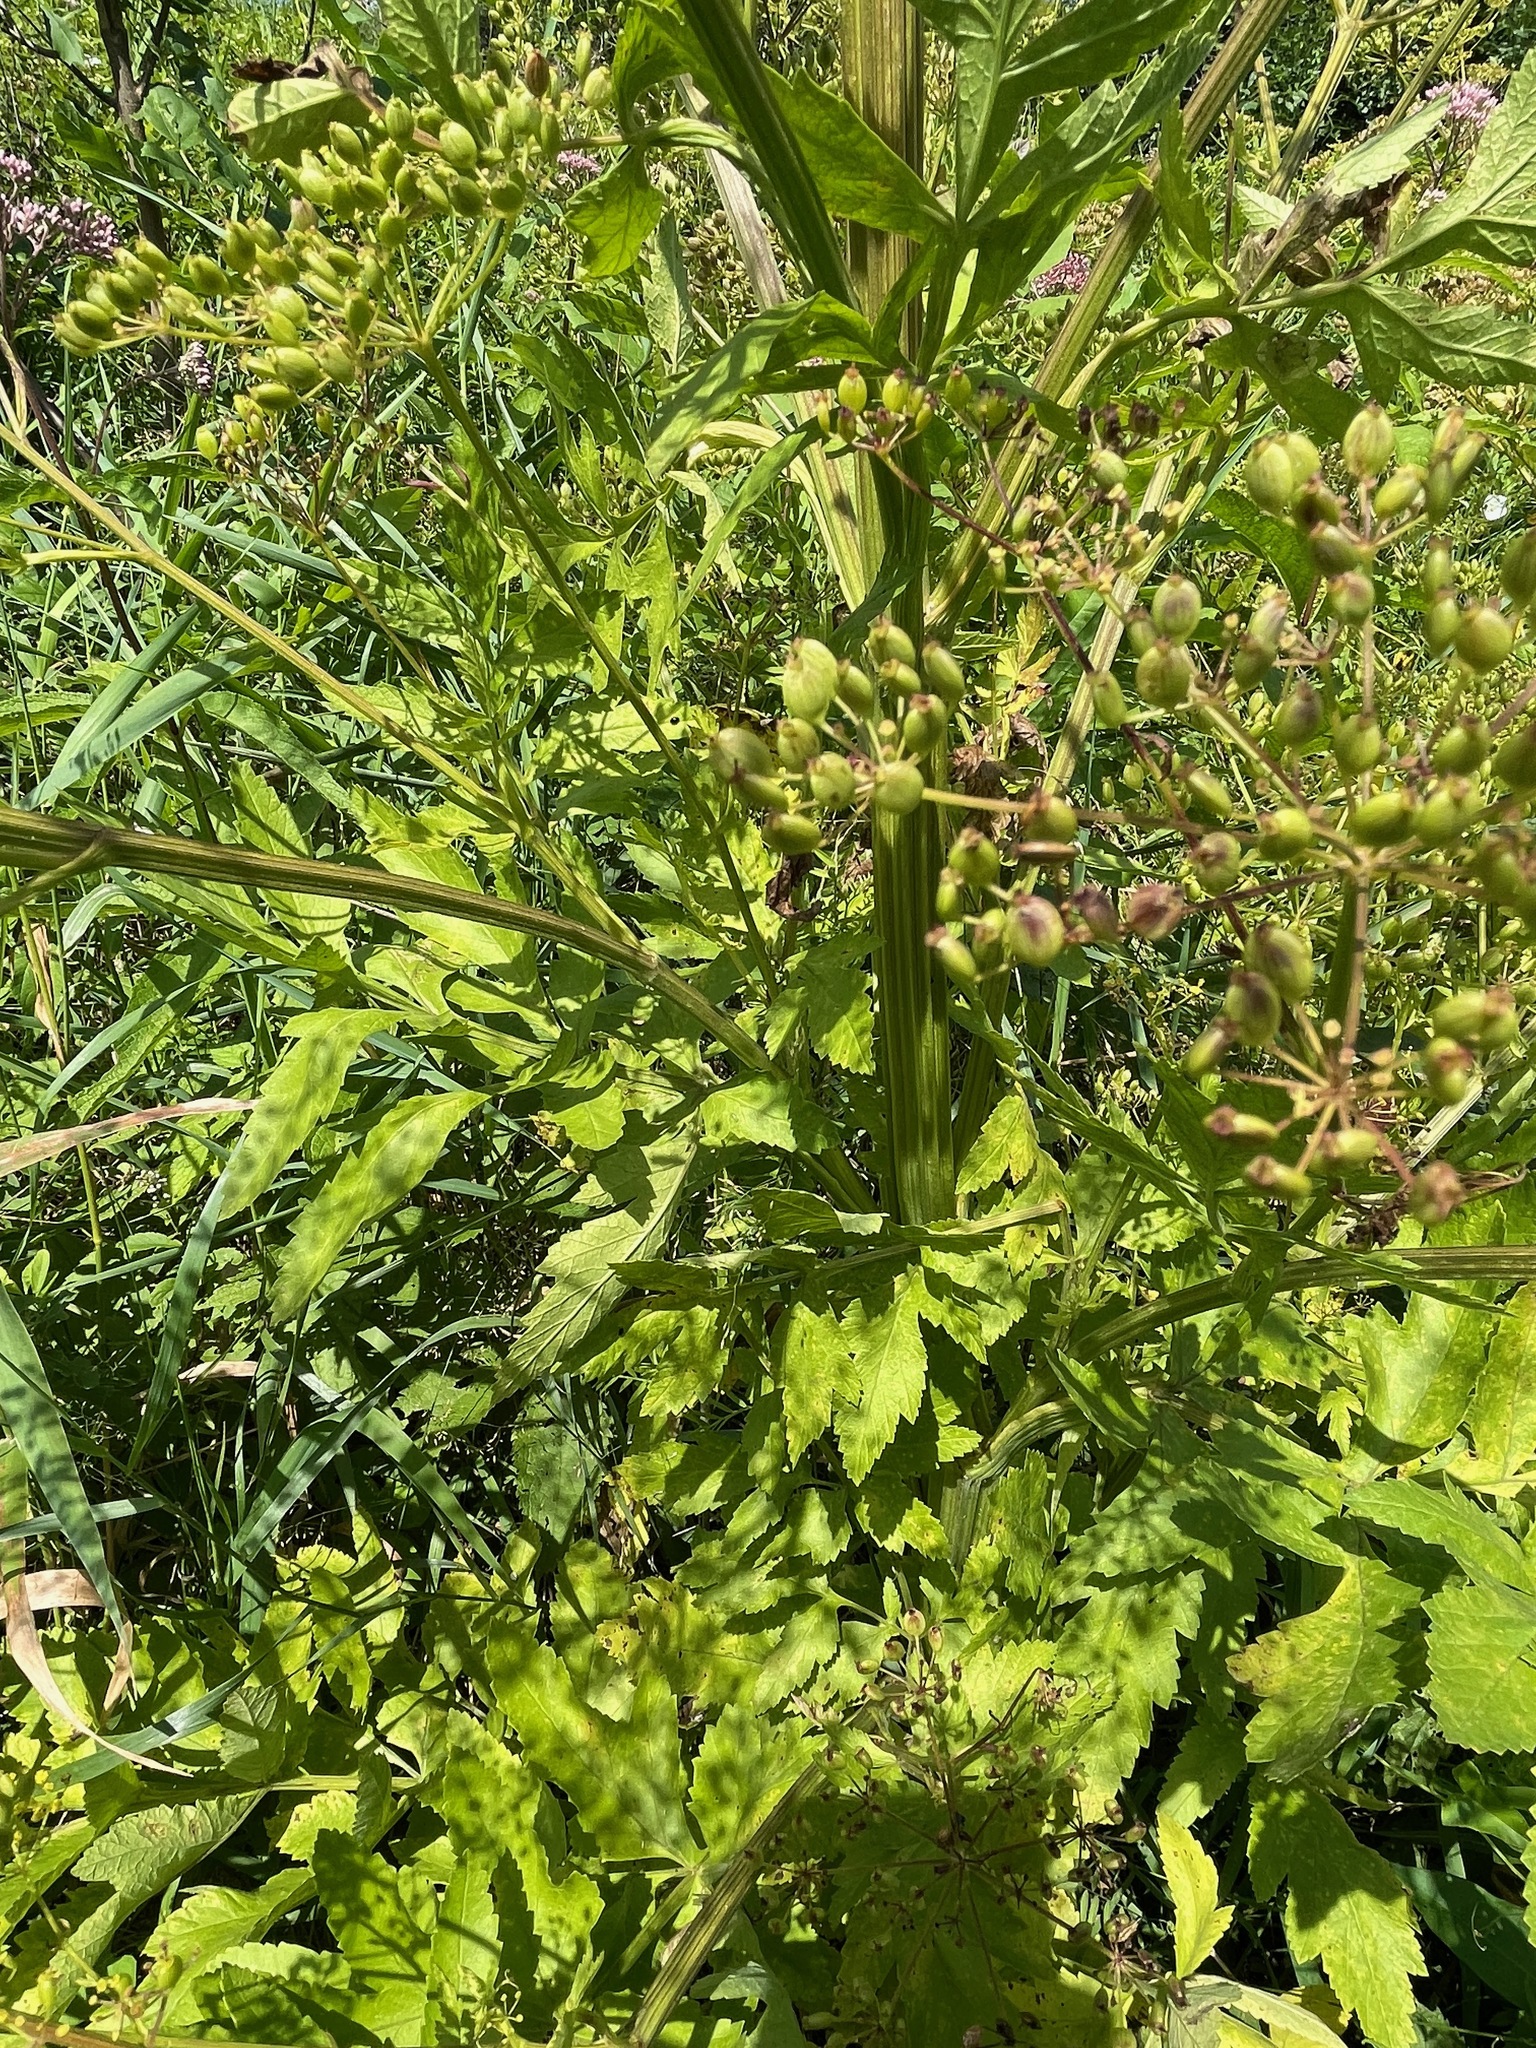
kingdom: Plantae
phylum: Tracheophyta
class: Magnoliopsida
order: Apiales
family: Apiaceae
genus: Pastinaca
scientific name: Pastinaca sativa
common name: Wild parsnip
